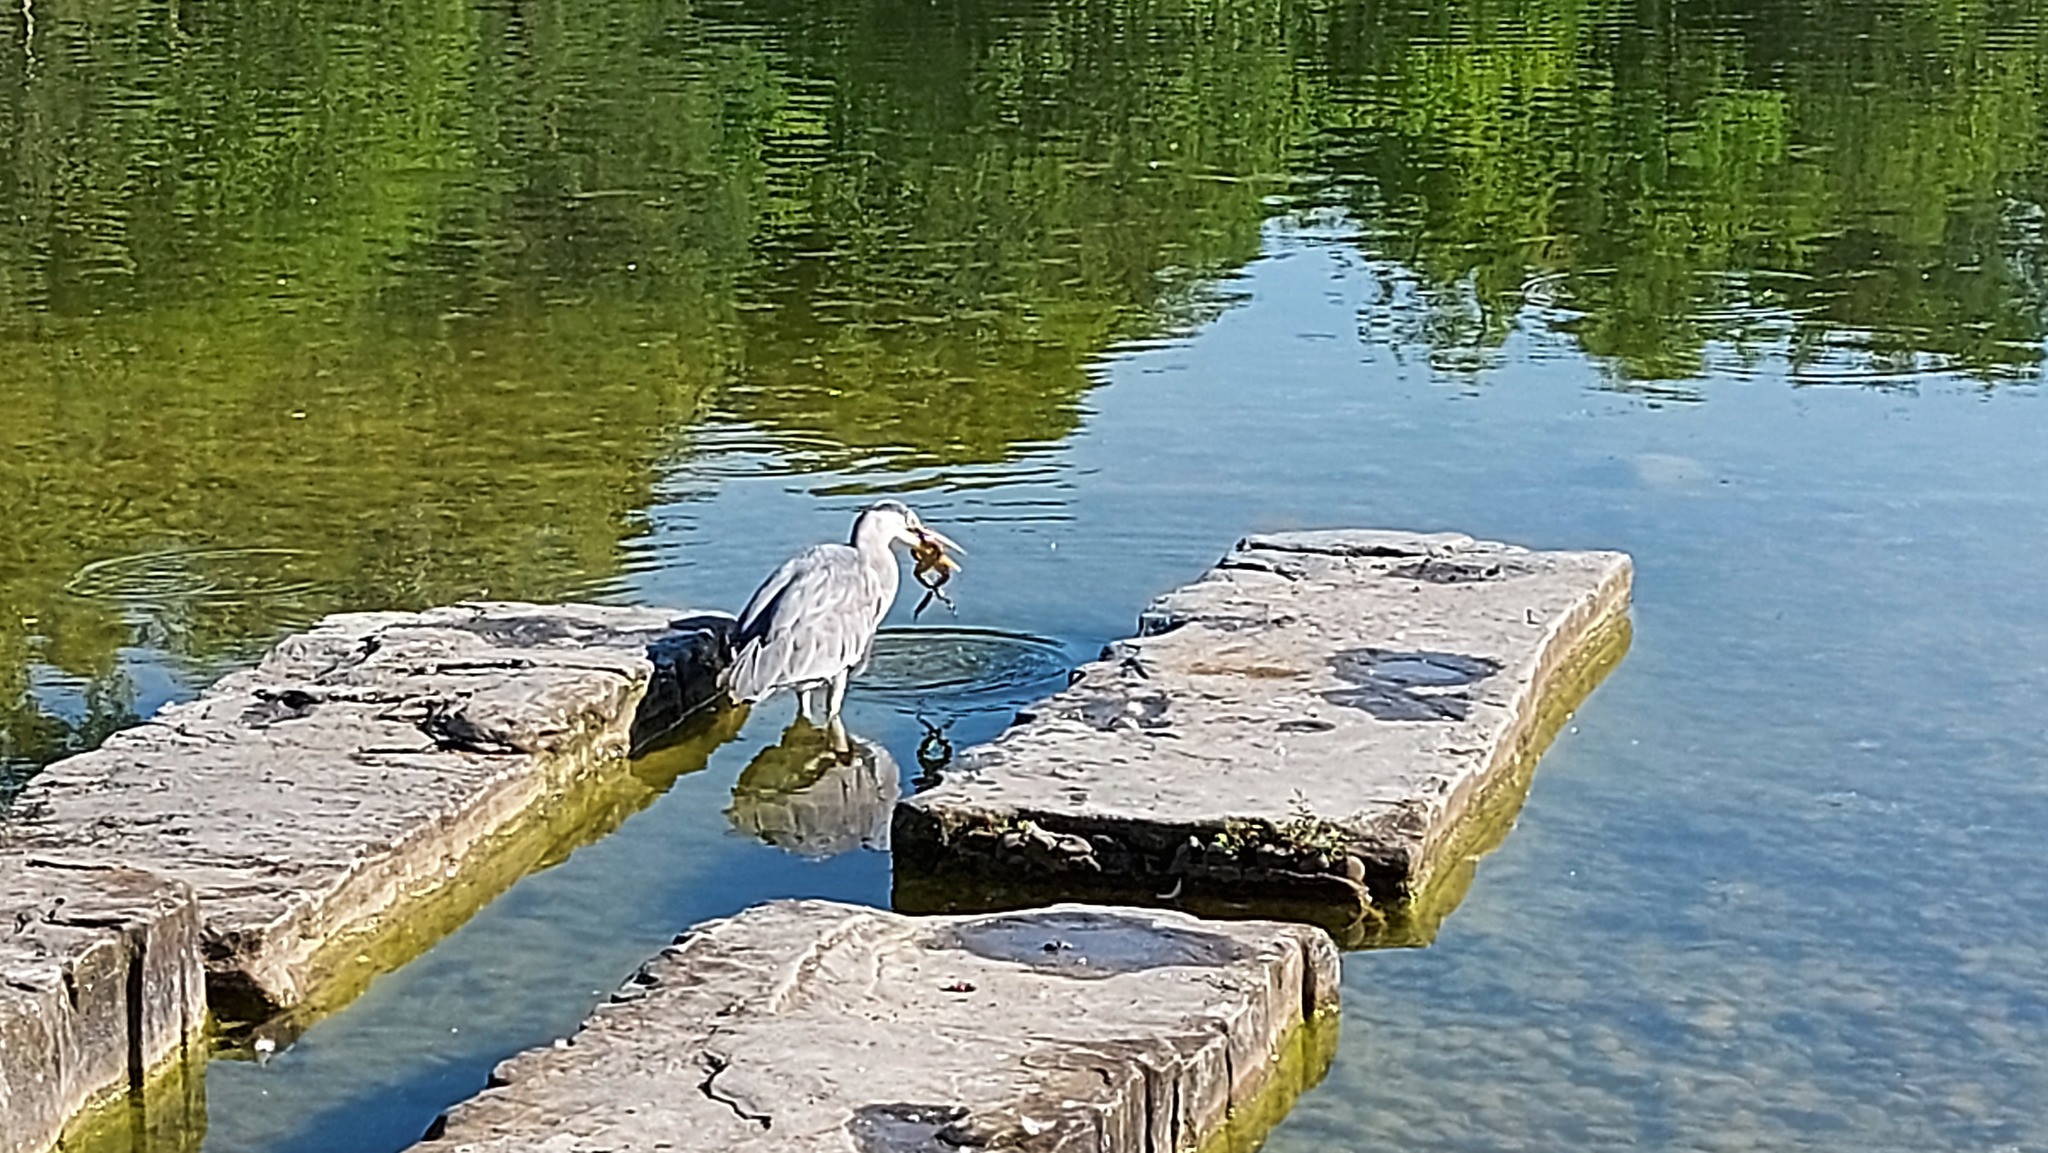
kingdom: Animalia
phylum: Chordata
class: Aves
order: Pelecaniformes
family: Ardeidae
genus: Ardea
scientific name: Ardea cinerea
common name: Grey heron
